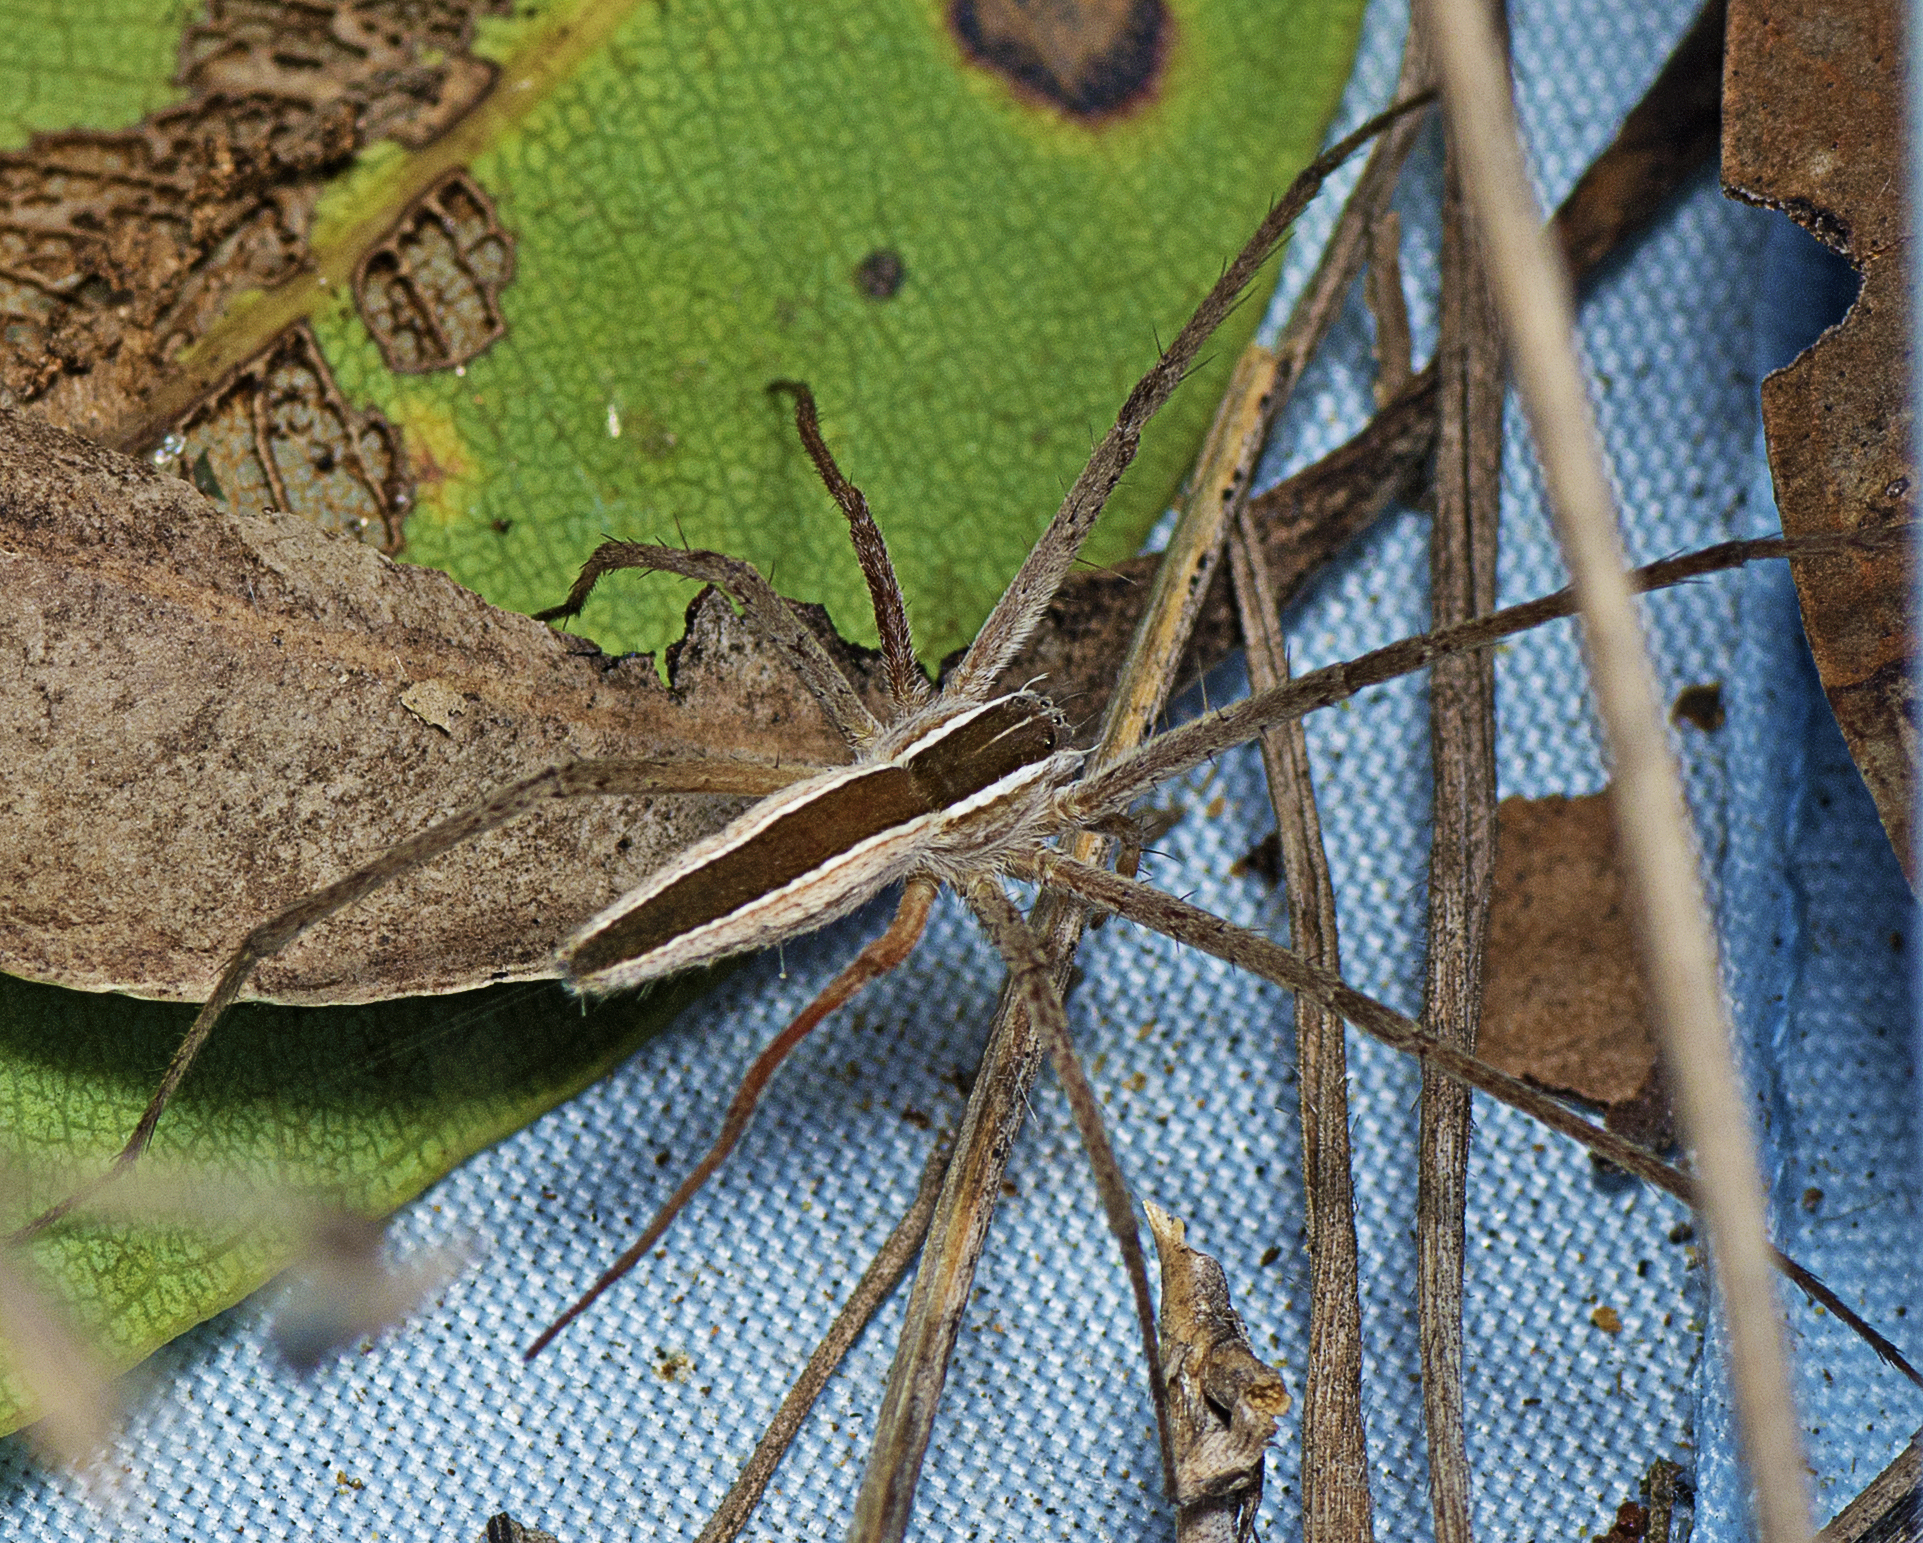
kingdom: Animalia
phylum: Arthropoda
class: Arachnida
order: Araneae
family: Pisauridae
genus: Perenethis
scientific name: Perenethis venusta
